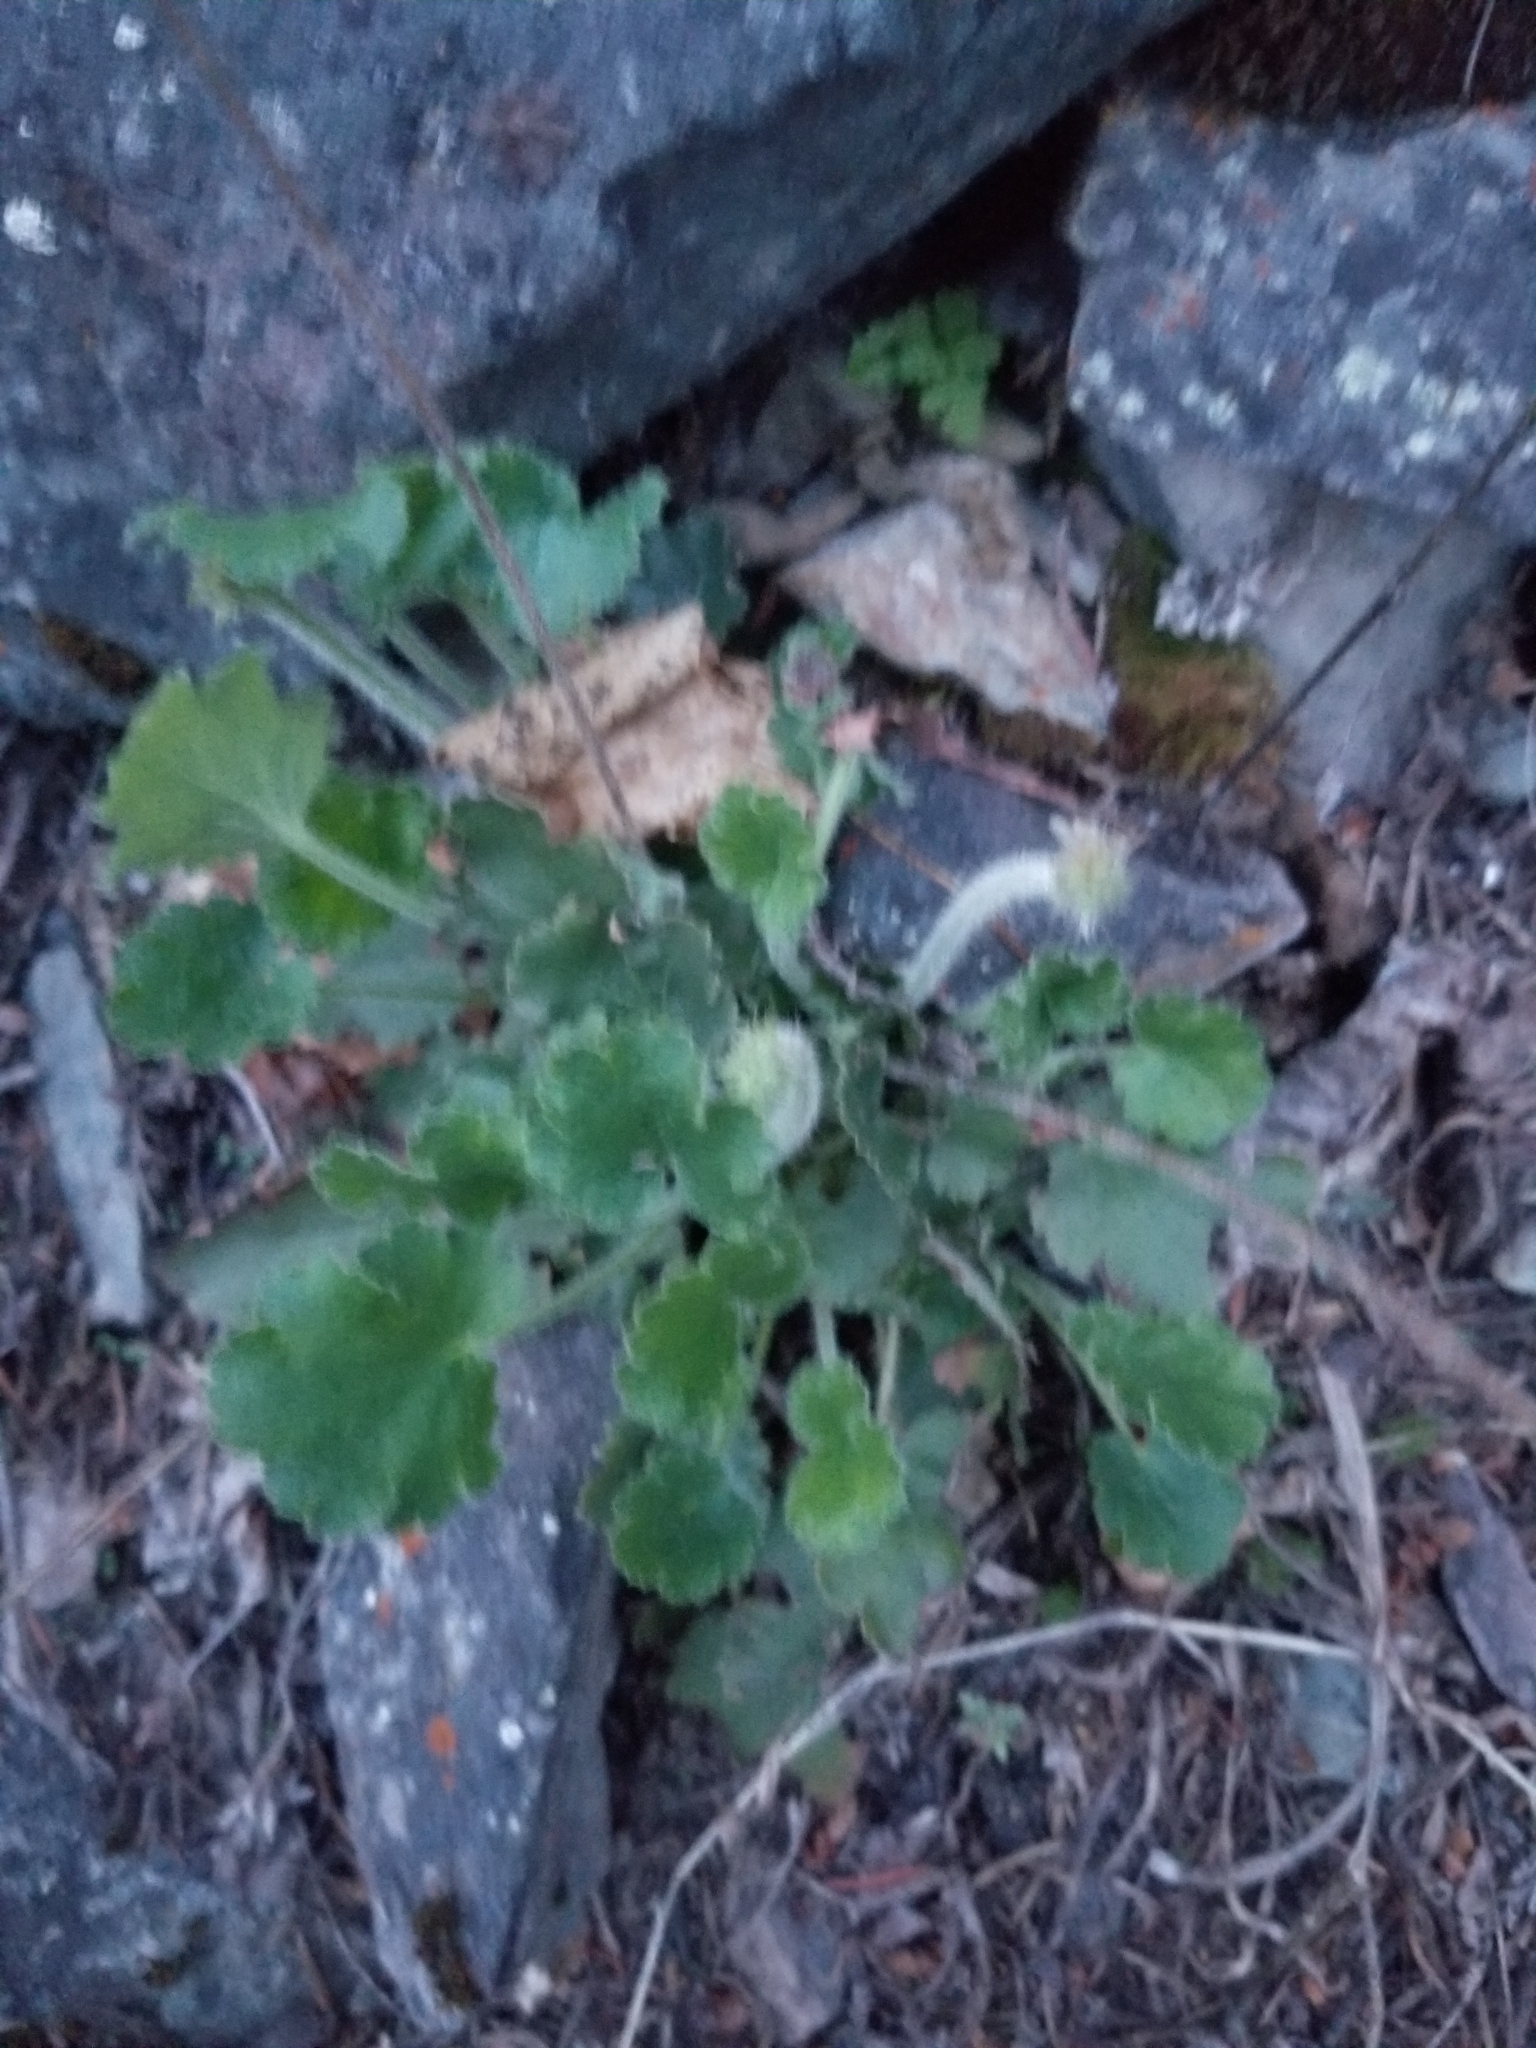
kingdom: Plantae
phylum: Tracheophyta
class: Magnoliopsida
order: Saxifragales
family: Saxifragaceae
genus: Heuchera
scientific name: Heuchera cylindrica
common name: Mat alumroot
